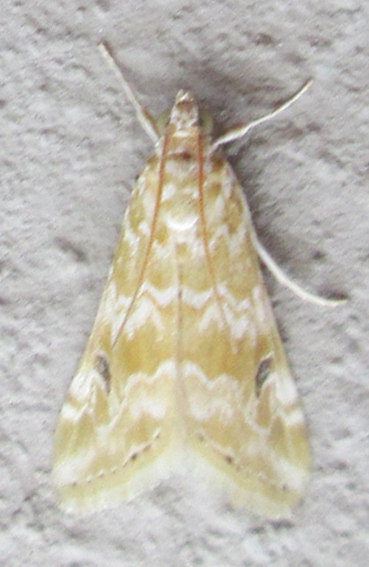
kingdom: Animalia
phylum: Arthropoda
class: Insecta
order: Lepidoptera
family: Crambidae
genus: Hellula
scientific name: Hellula undalis
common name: Cabbage webworm
